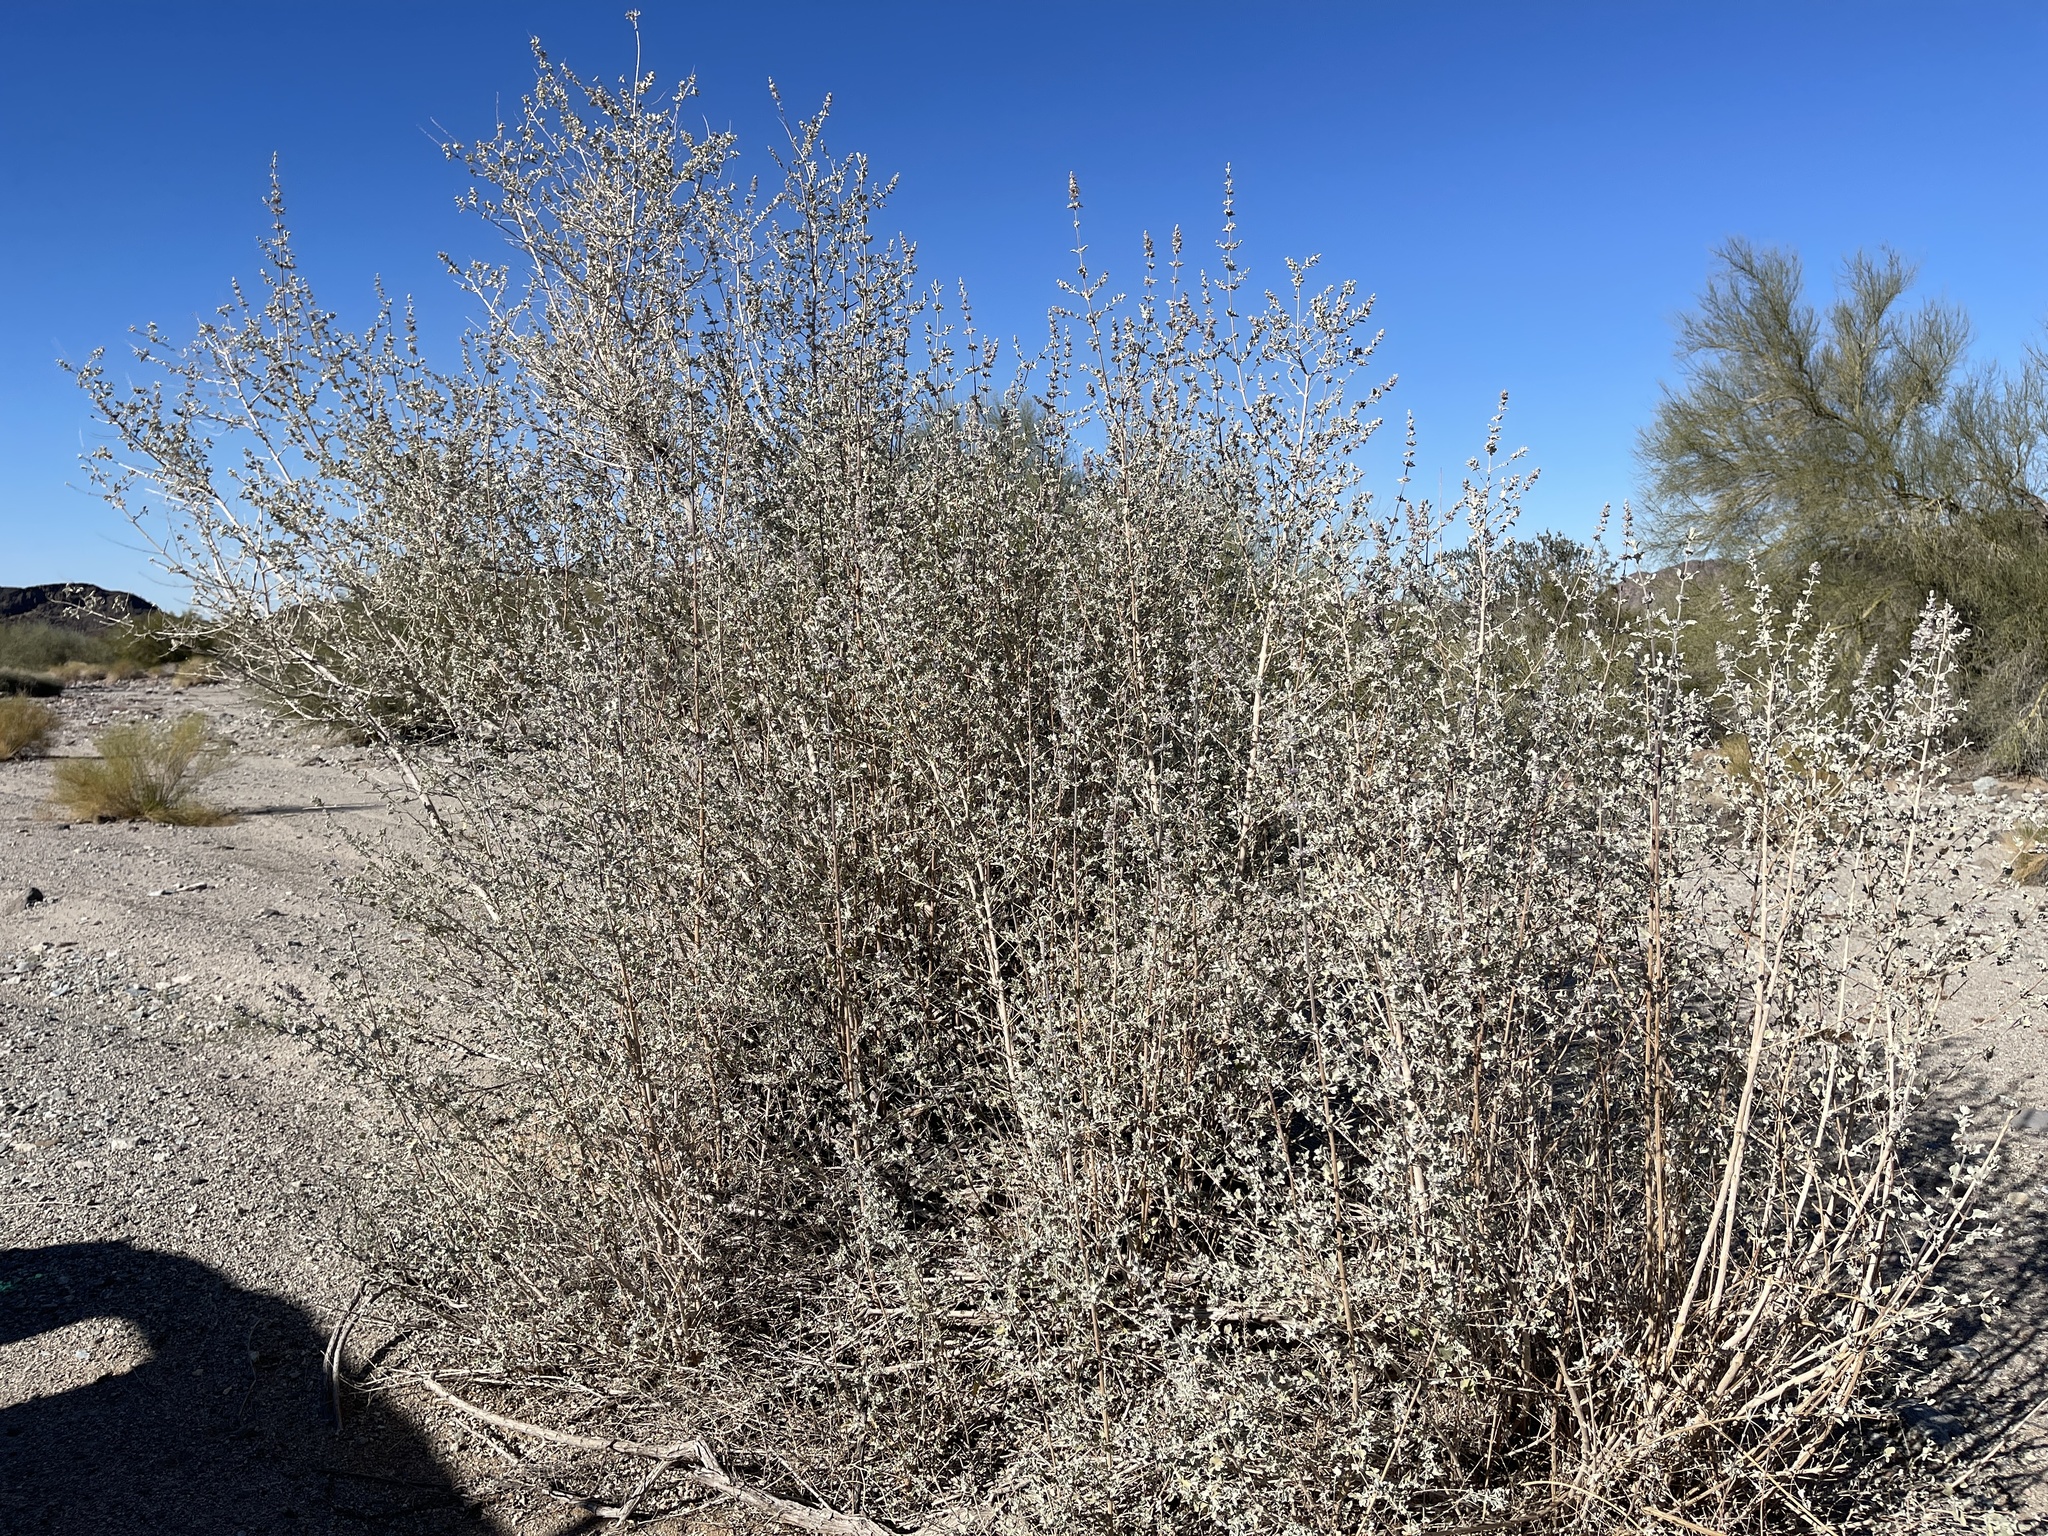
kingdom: Plantae
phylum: Tracheophyta
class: Magnoliopsida
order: Lamiales
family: Lamiaceae
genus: Condea
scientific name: Condea emoryi
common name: Chia
